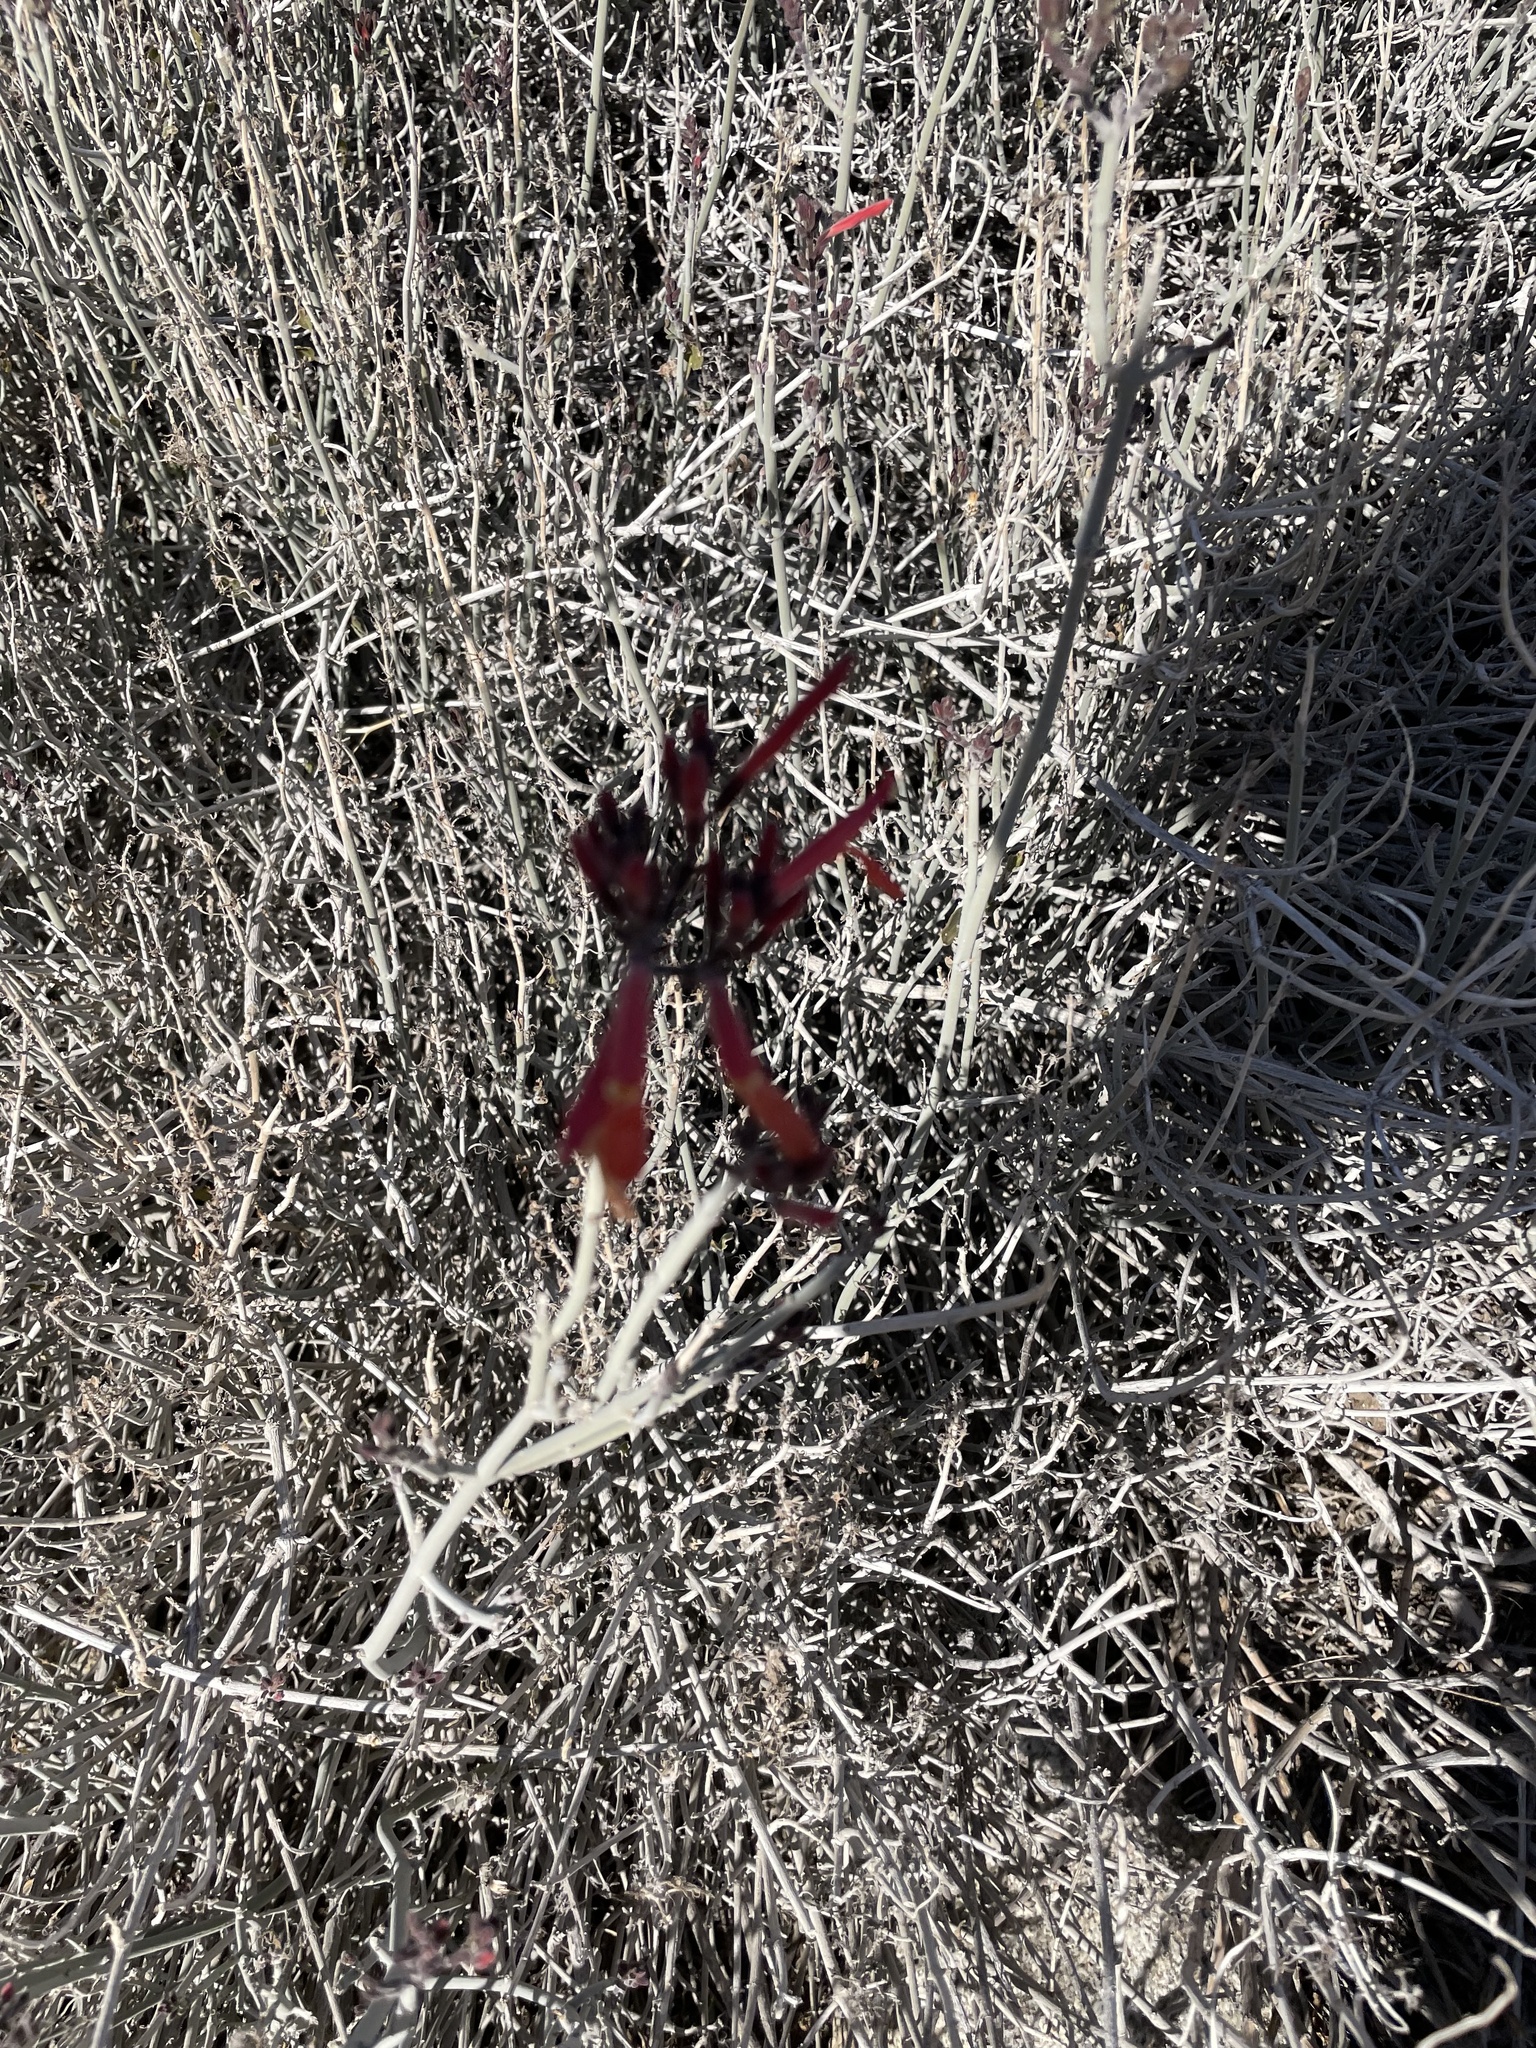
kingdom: Plantae
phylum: Tracheophyta
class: Magnoliopsida
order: Lamiales
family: Acanthaceae
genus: Justicia
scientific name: Justicia californica
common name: Chuparosa-honeysuckle
